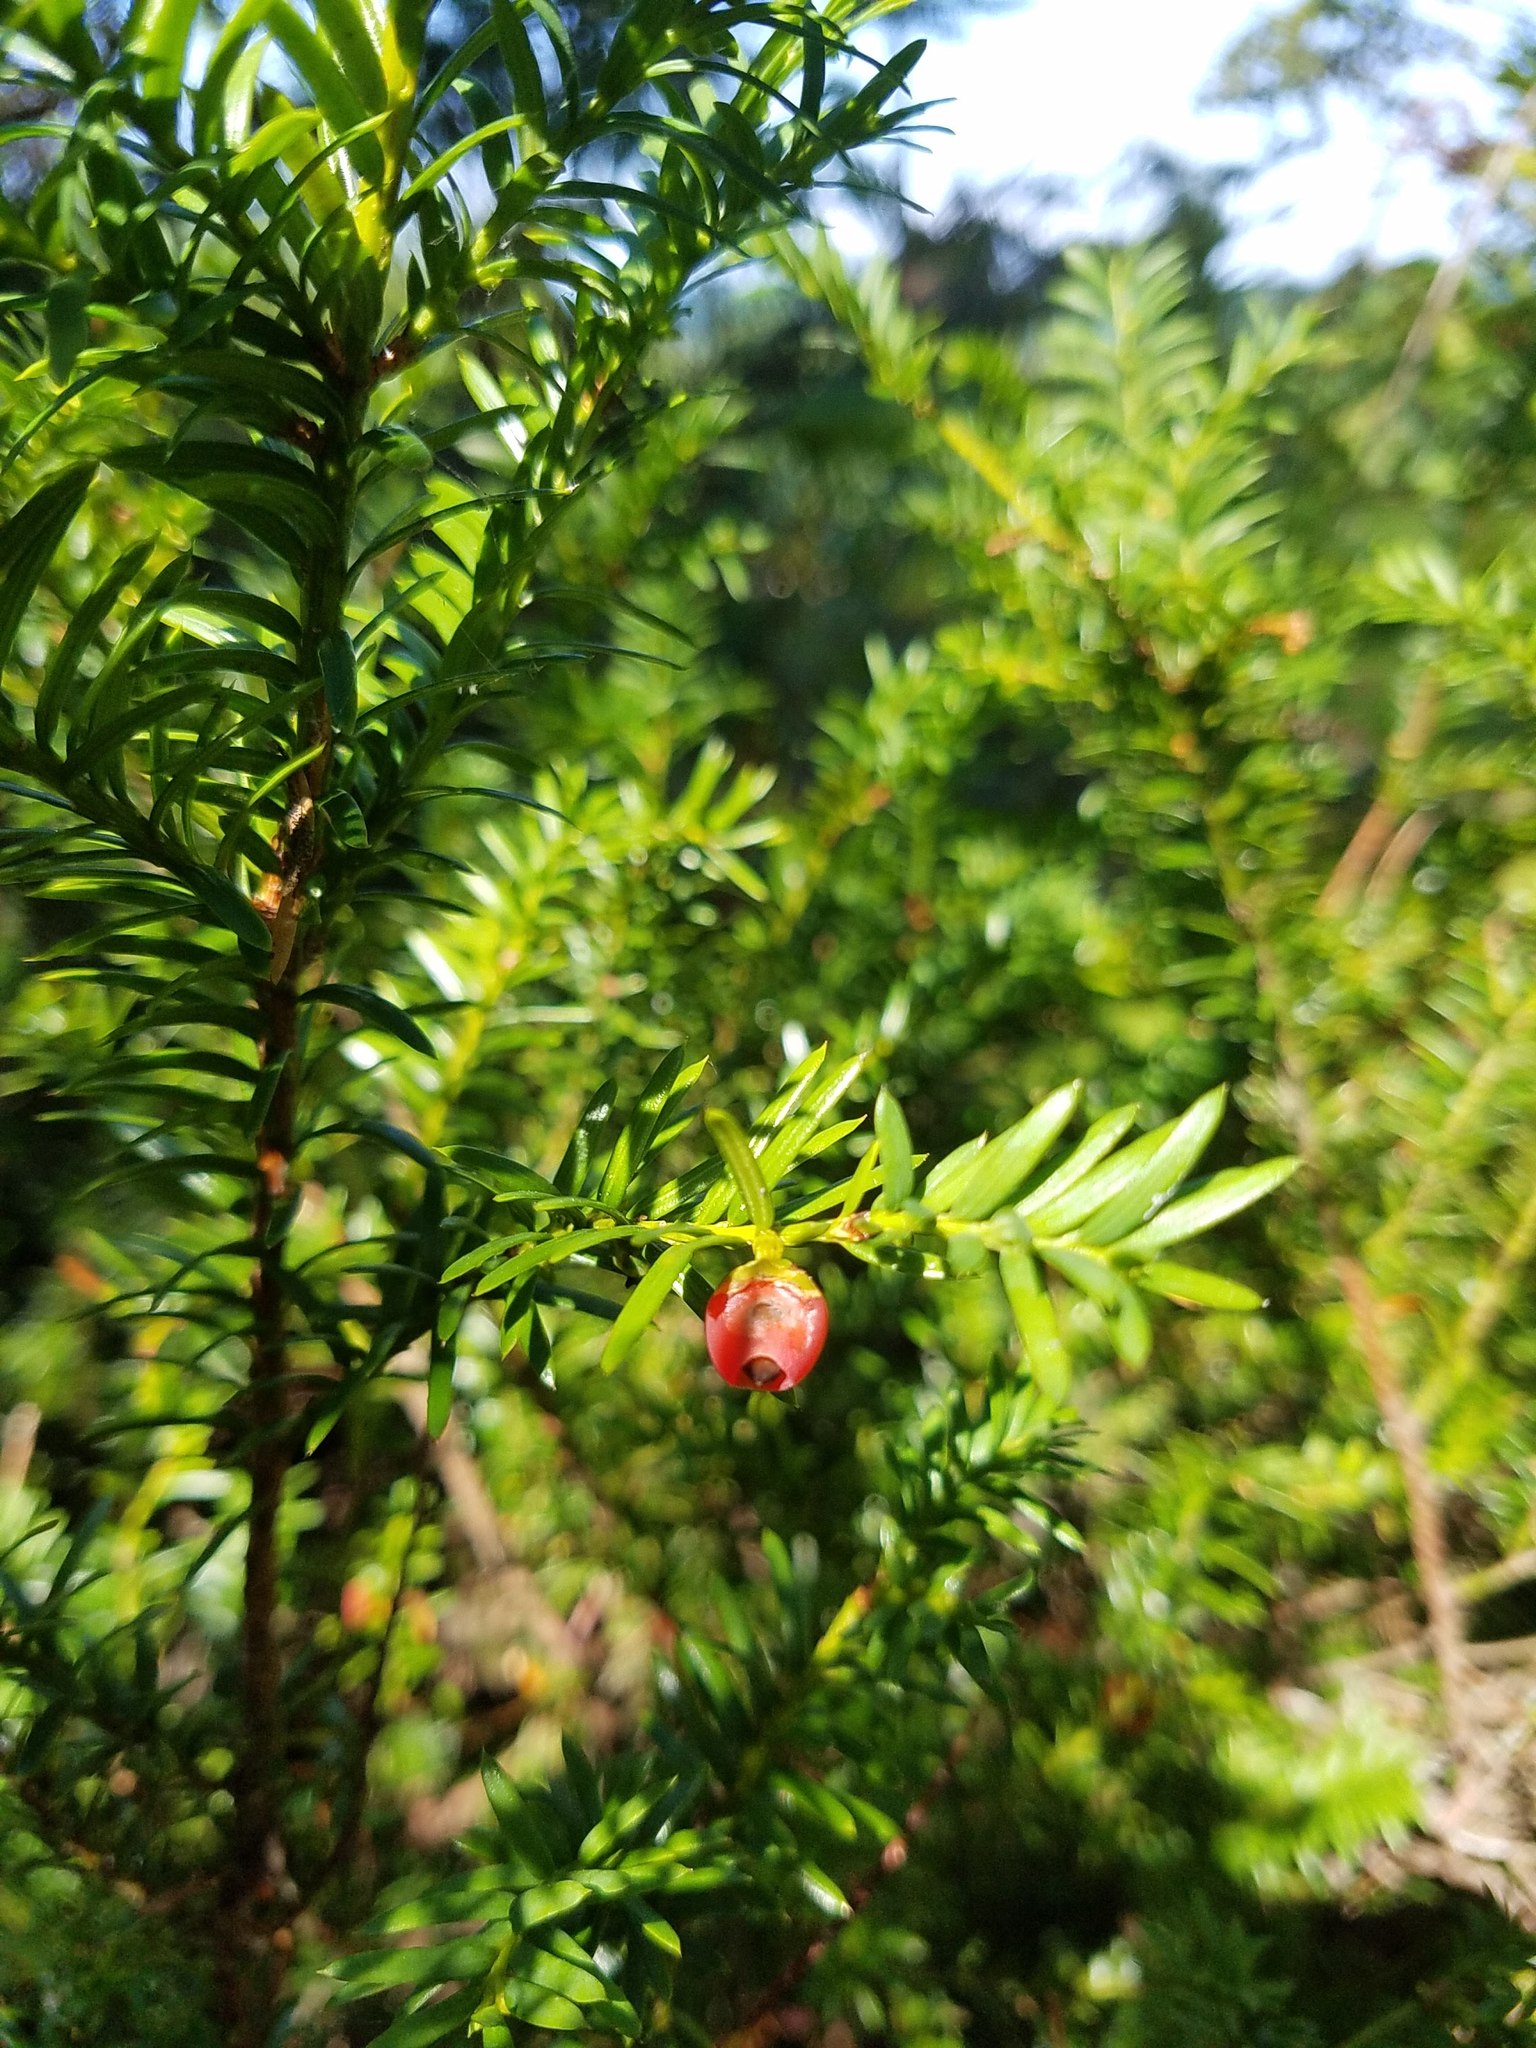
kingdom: Plantae
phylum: Tracheophyta
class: Pinopsida
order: Pinales
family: Taxaceae
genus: Taxus
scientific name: Taxus canadensis
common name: American yew
